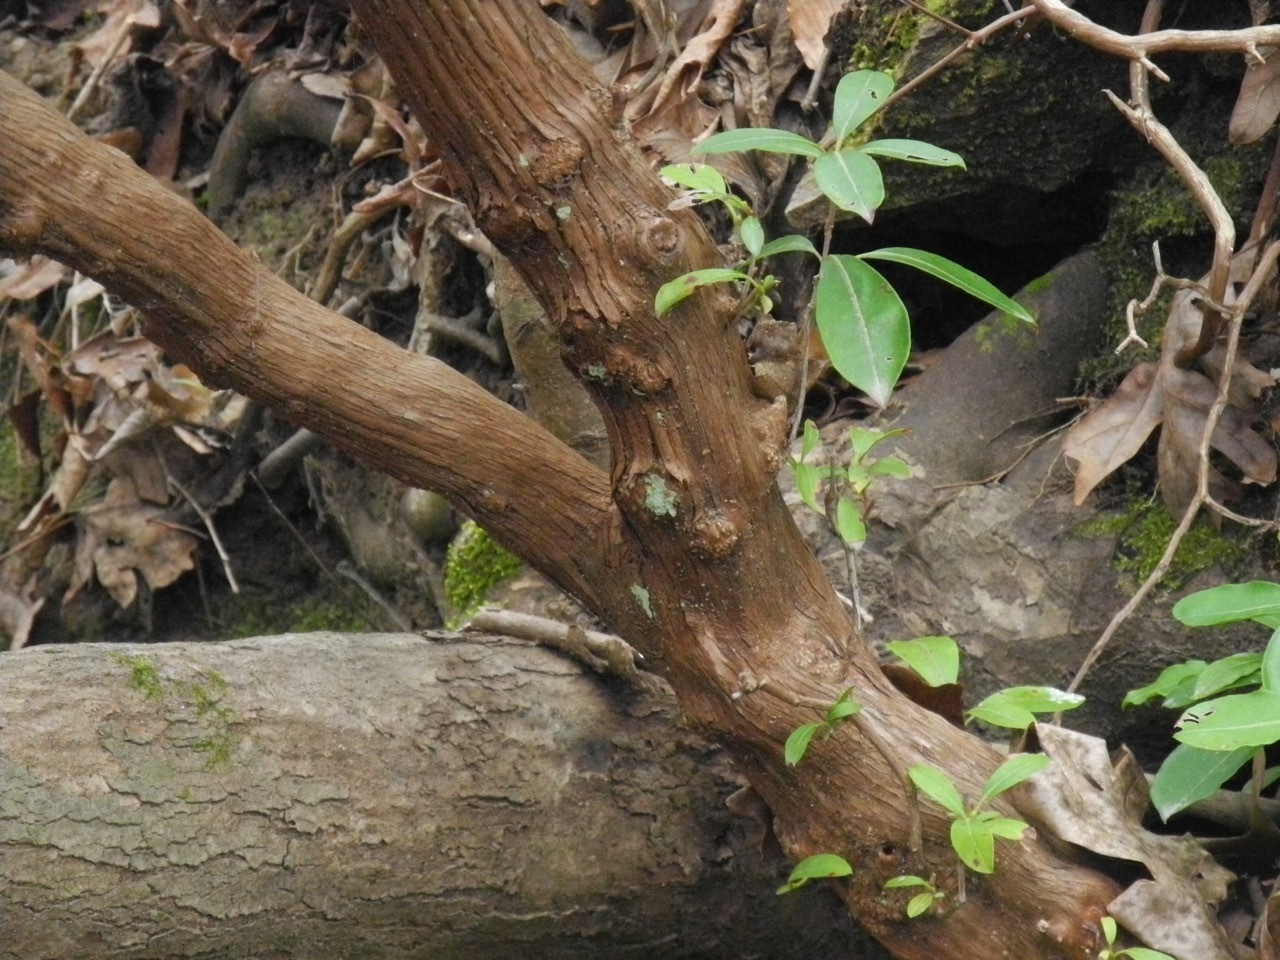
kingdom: Plantae
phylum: Tracheophyta
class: Magnoliopsida
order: Ericales
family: Ericaceae
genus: Kalmia
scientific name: Kalmia latifolia
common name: Mountain-laurel
